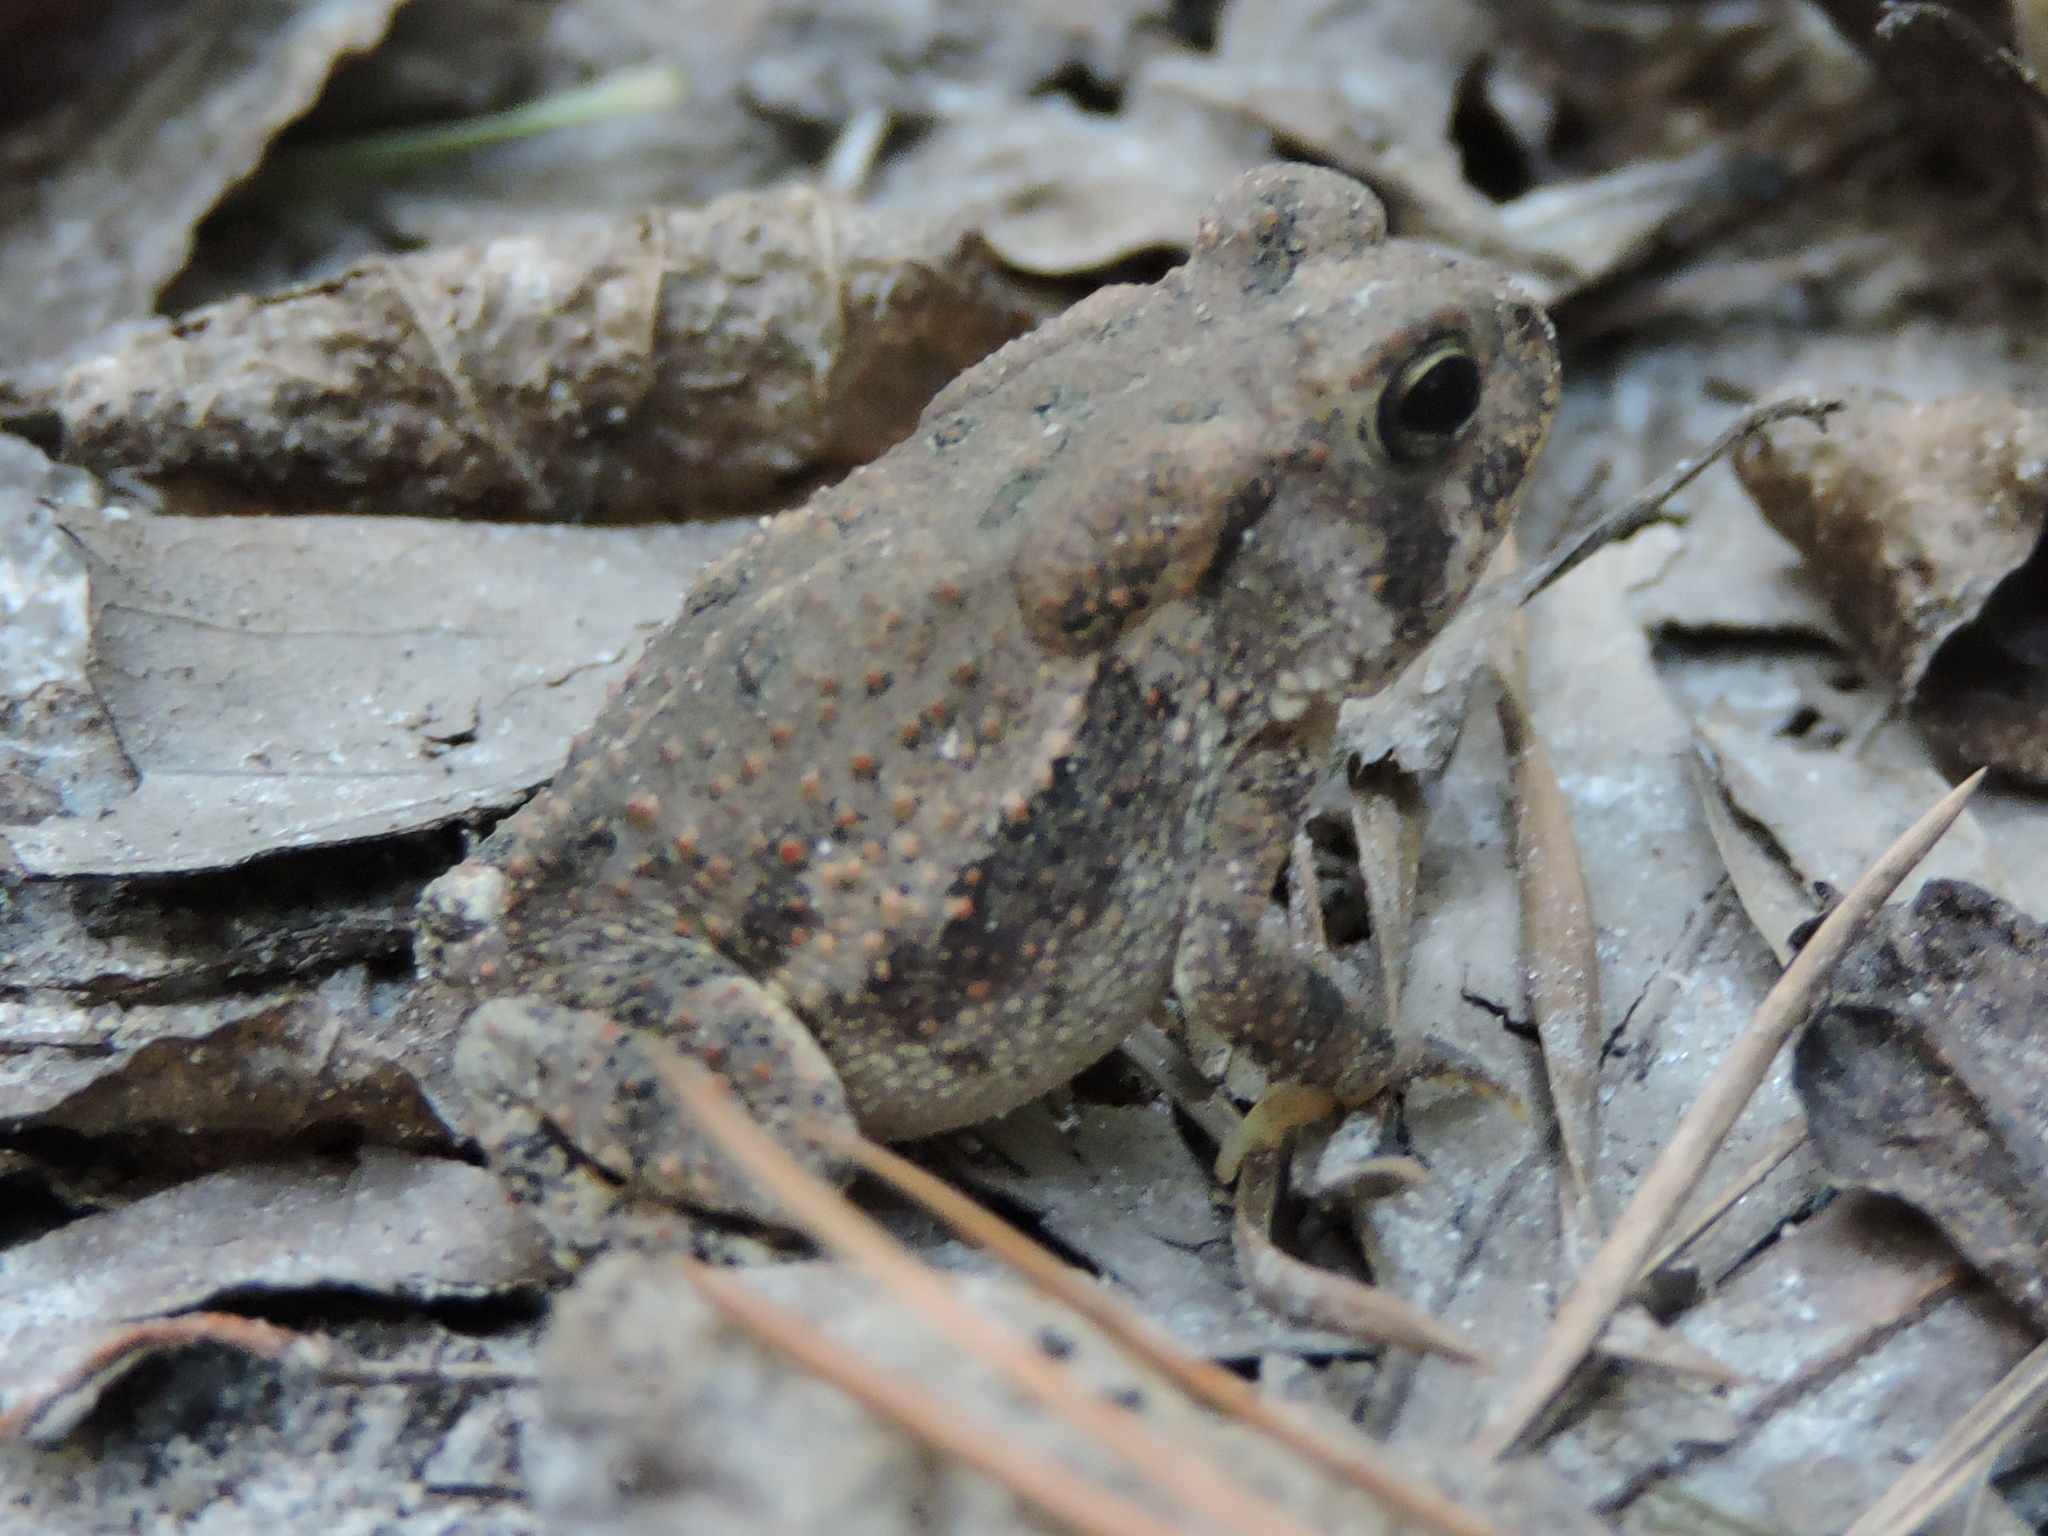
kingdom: Animalia
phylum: Chordata
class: Amphibia
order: Anura
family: Bufonidae
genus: Anaxyrus
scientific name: Anaxyrus fowleri
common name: Fowler's toad
